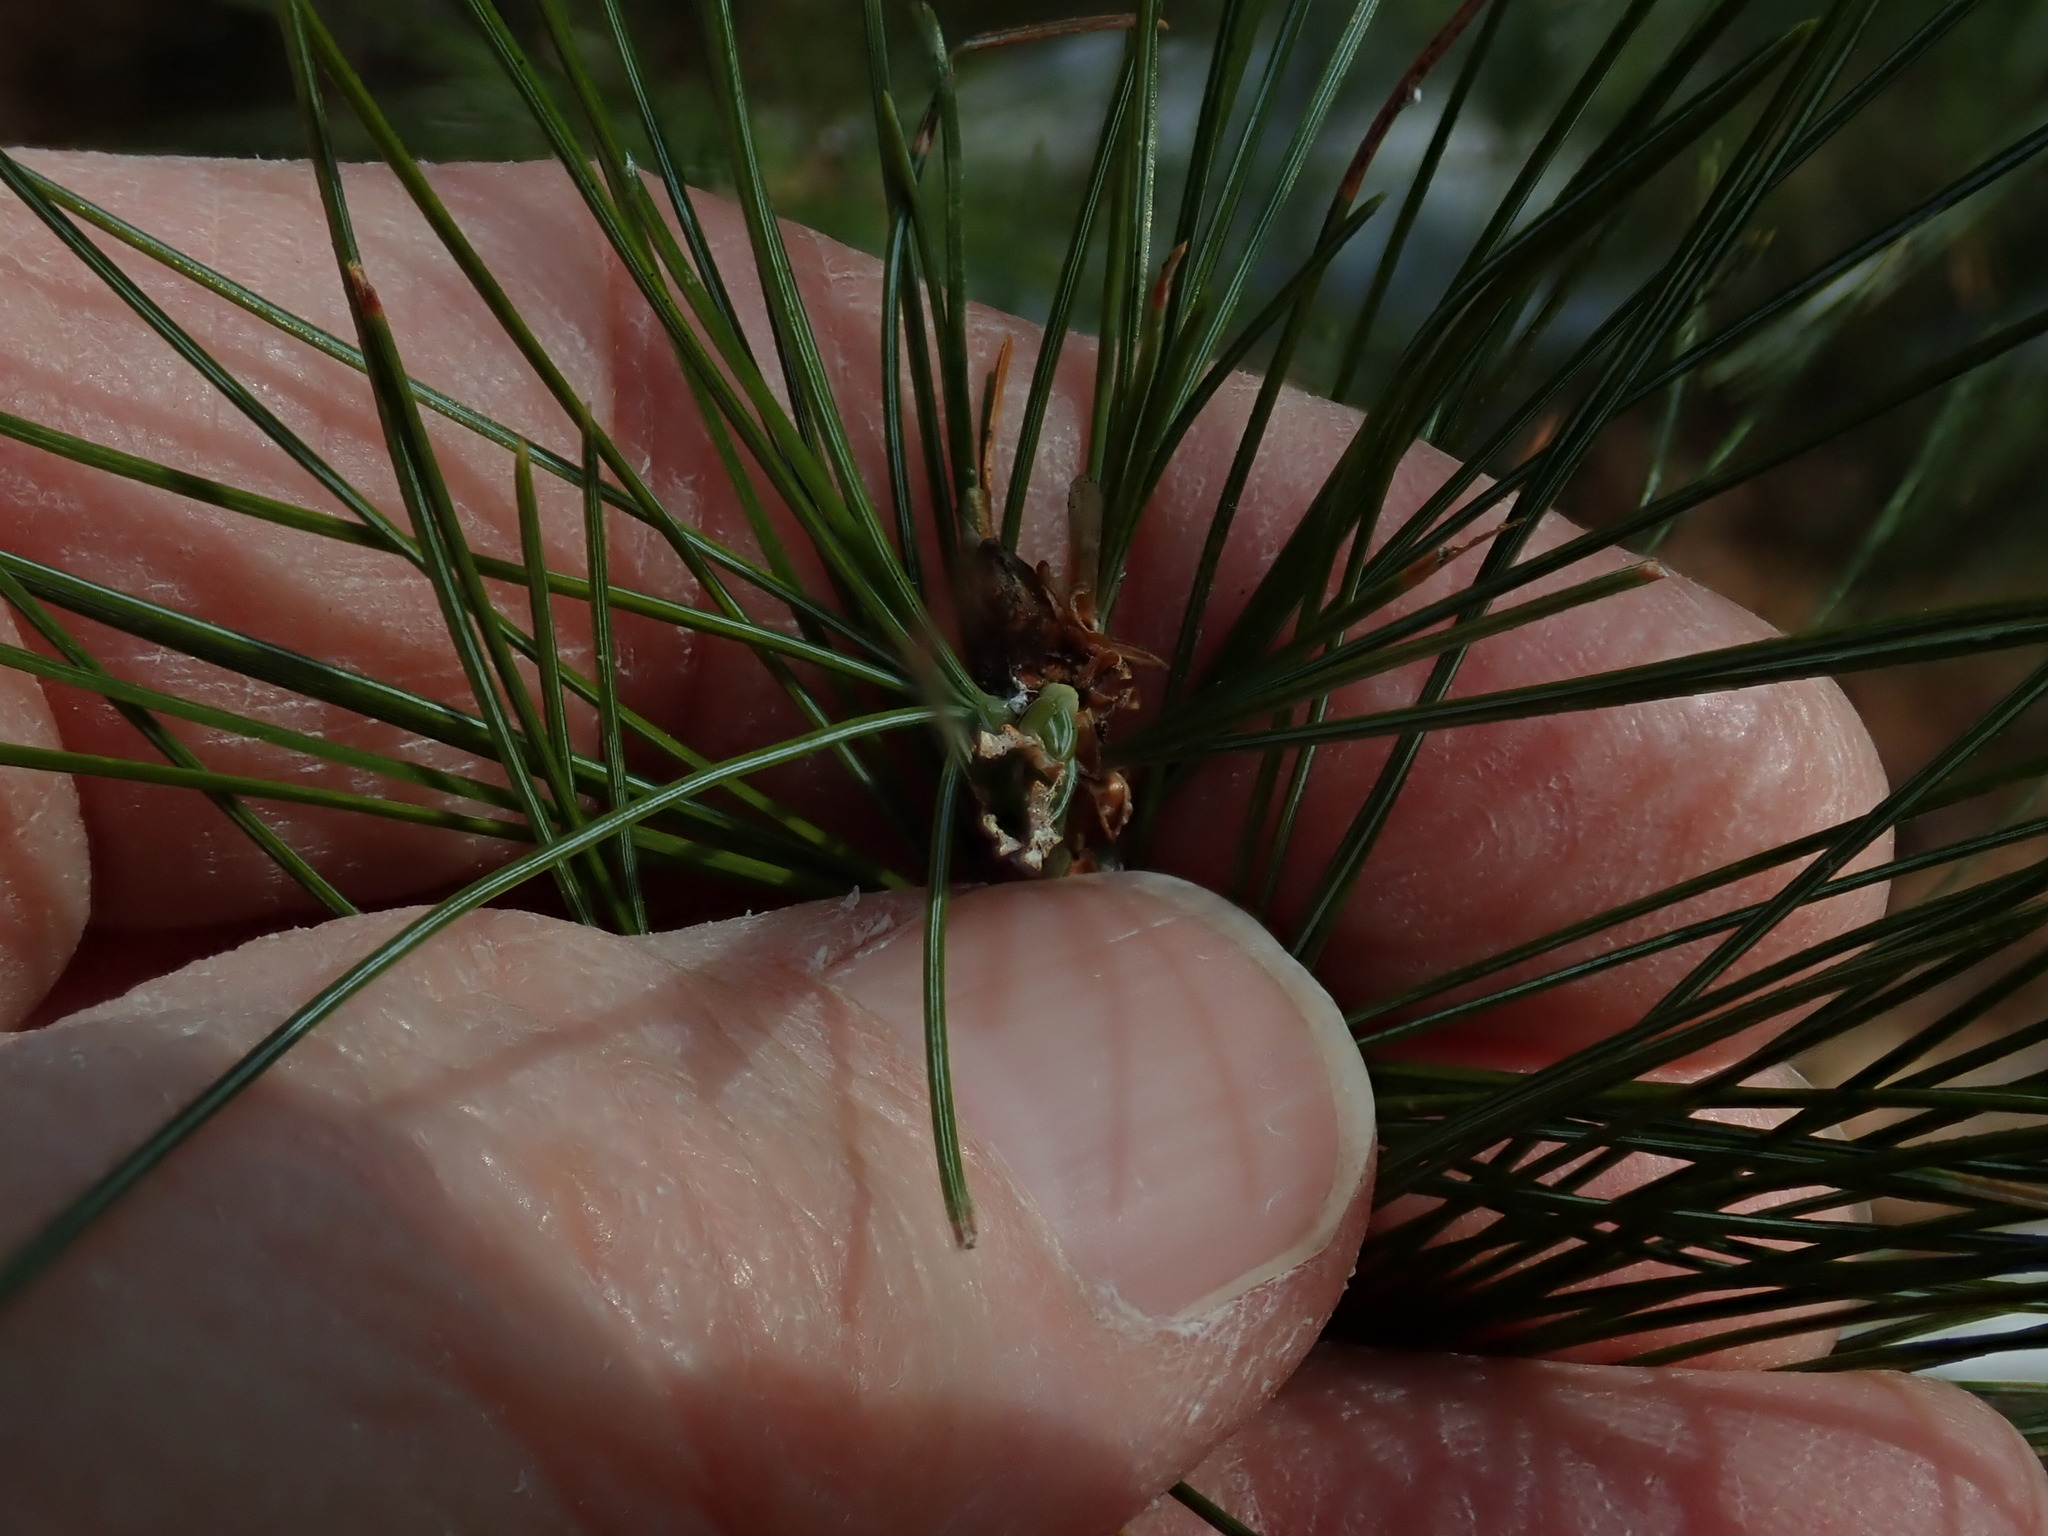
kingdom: Animalia
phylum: Arthropoda
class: Insecta
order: Lepidoptera
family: Tortricidae
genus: Argyrotaenia
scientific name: Argyrotaenia pinatubana
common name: Pine tube moth
